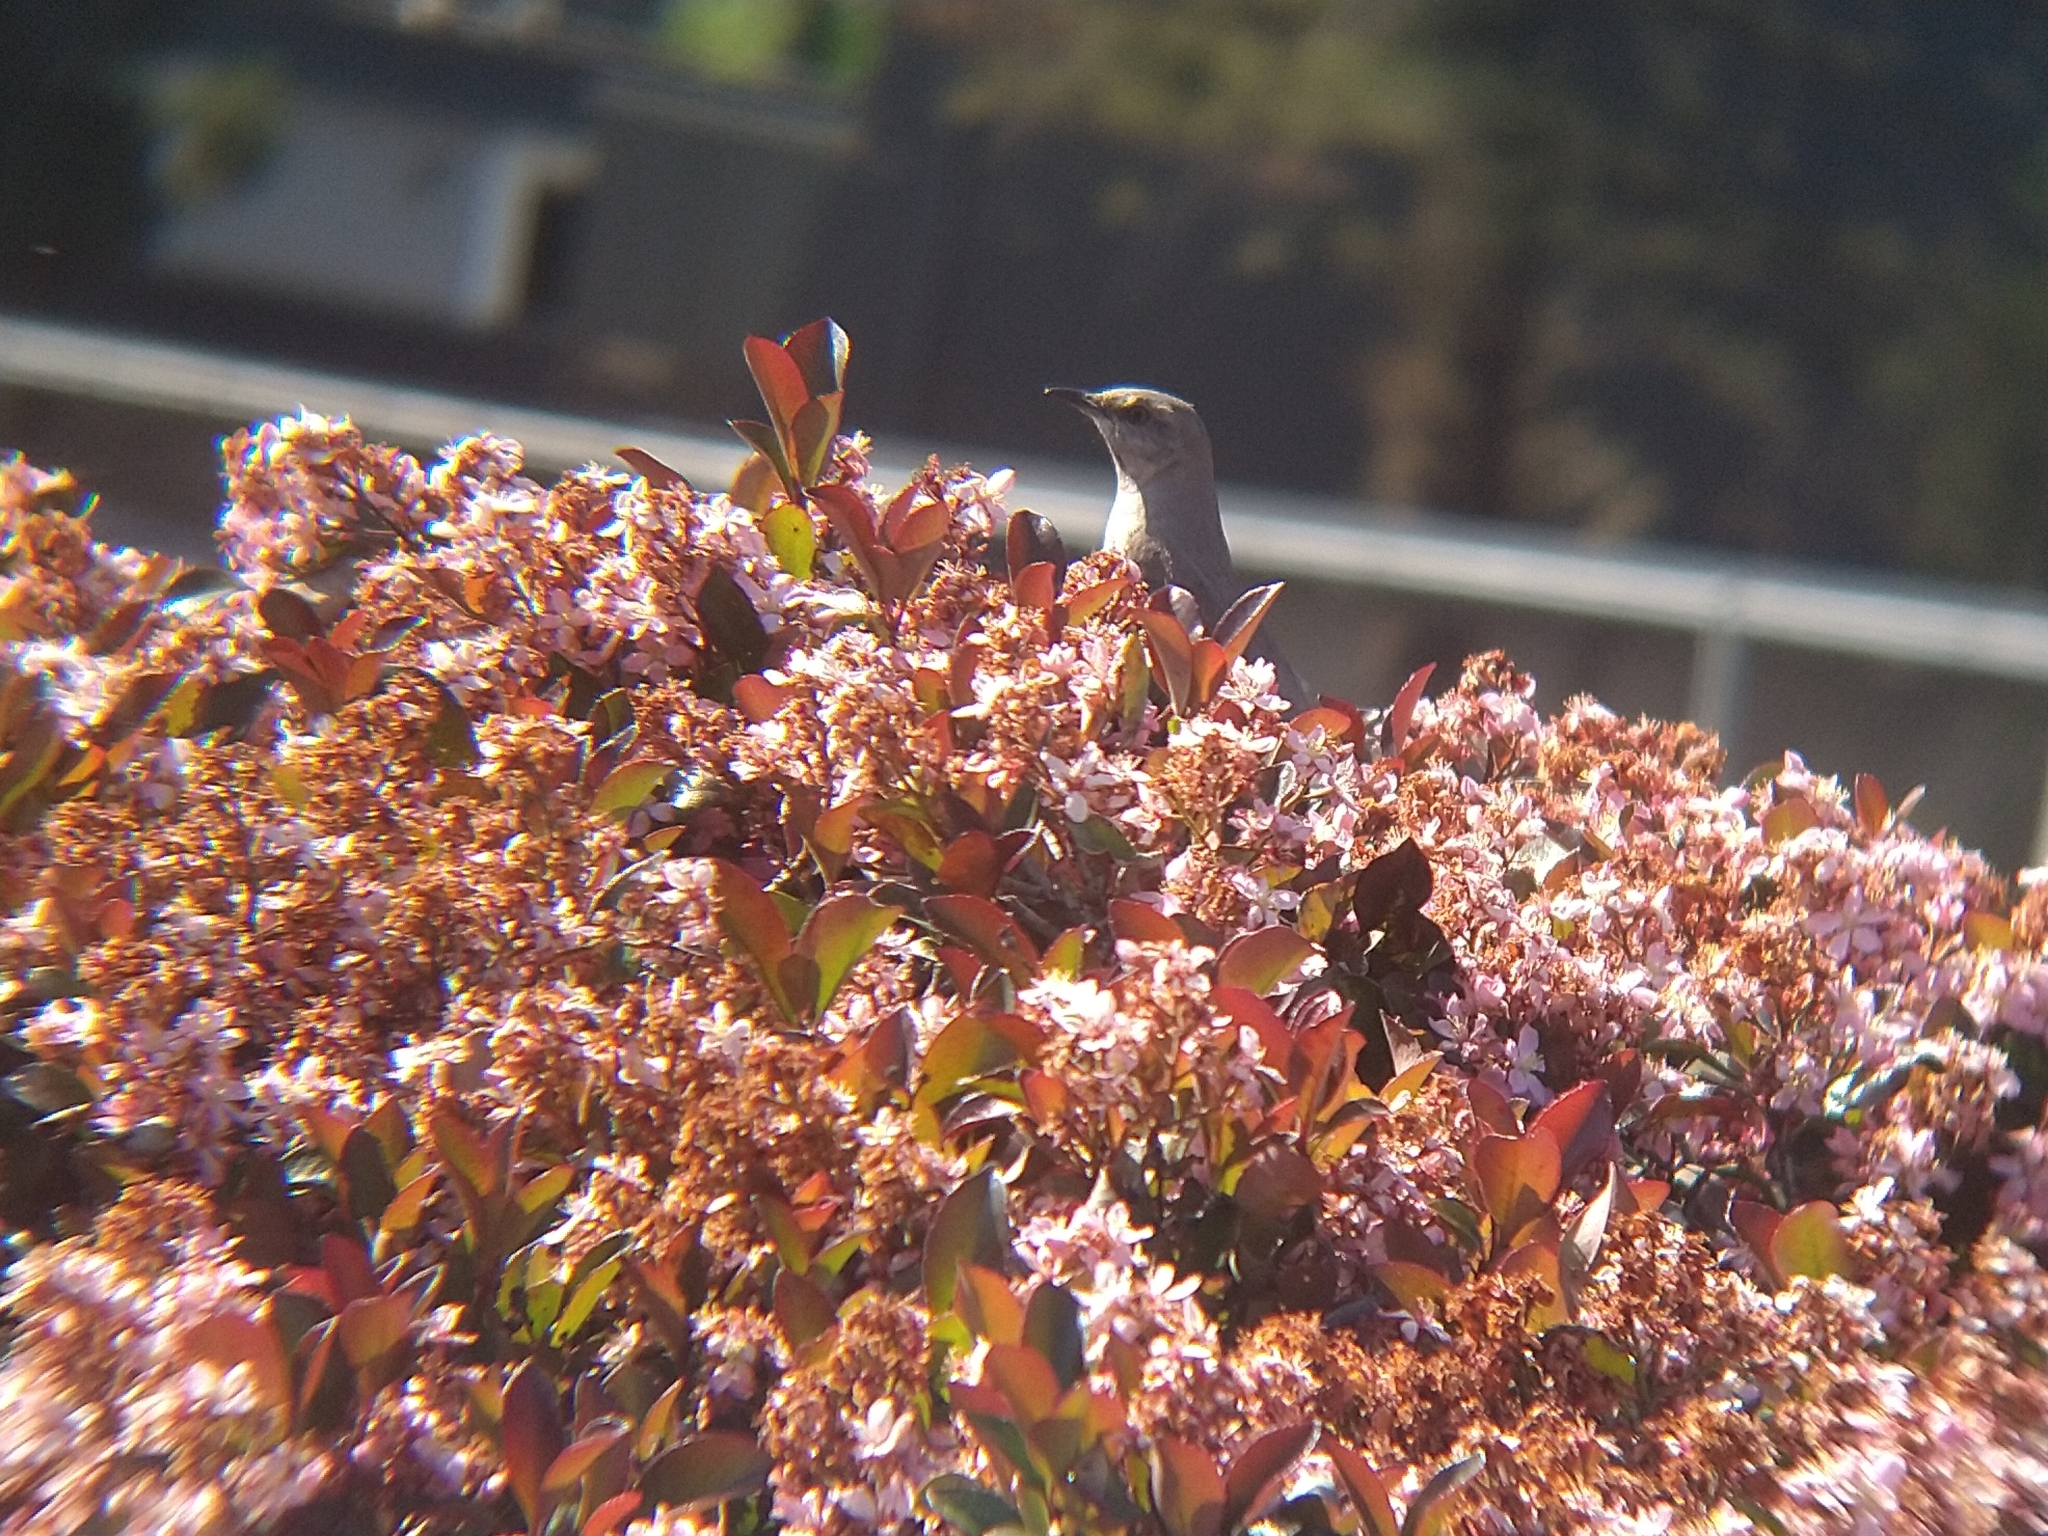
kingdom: Animalia
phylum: Chordata
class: Aves
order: Passeriformes
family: Mimidae
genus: Mimus
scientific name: Mimus polyglottos
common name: Northern mockingbird
